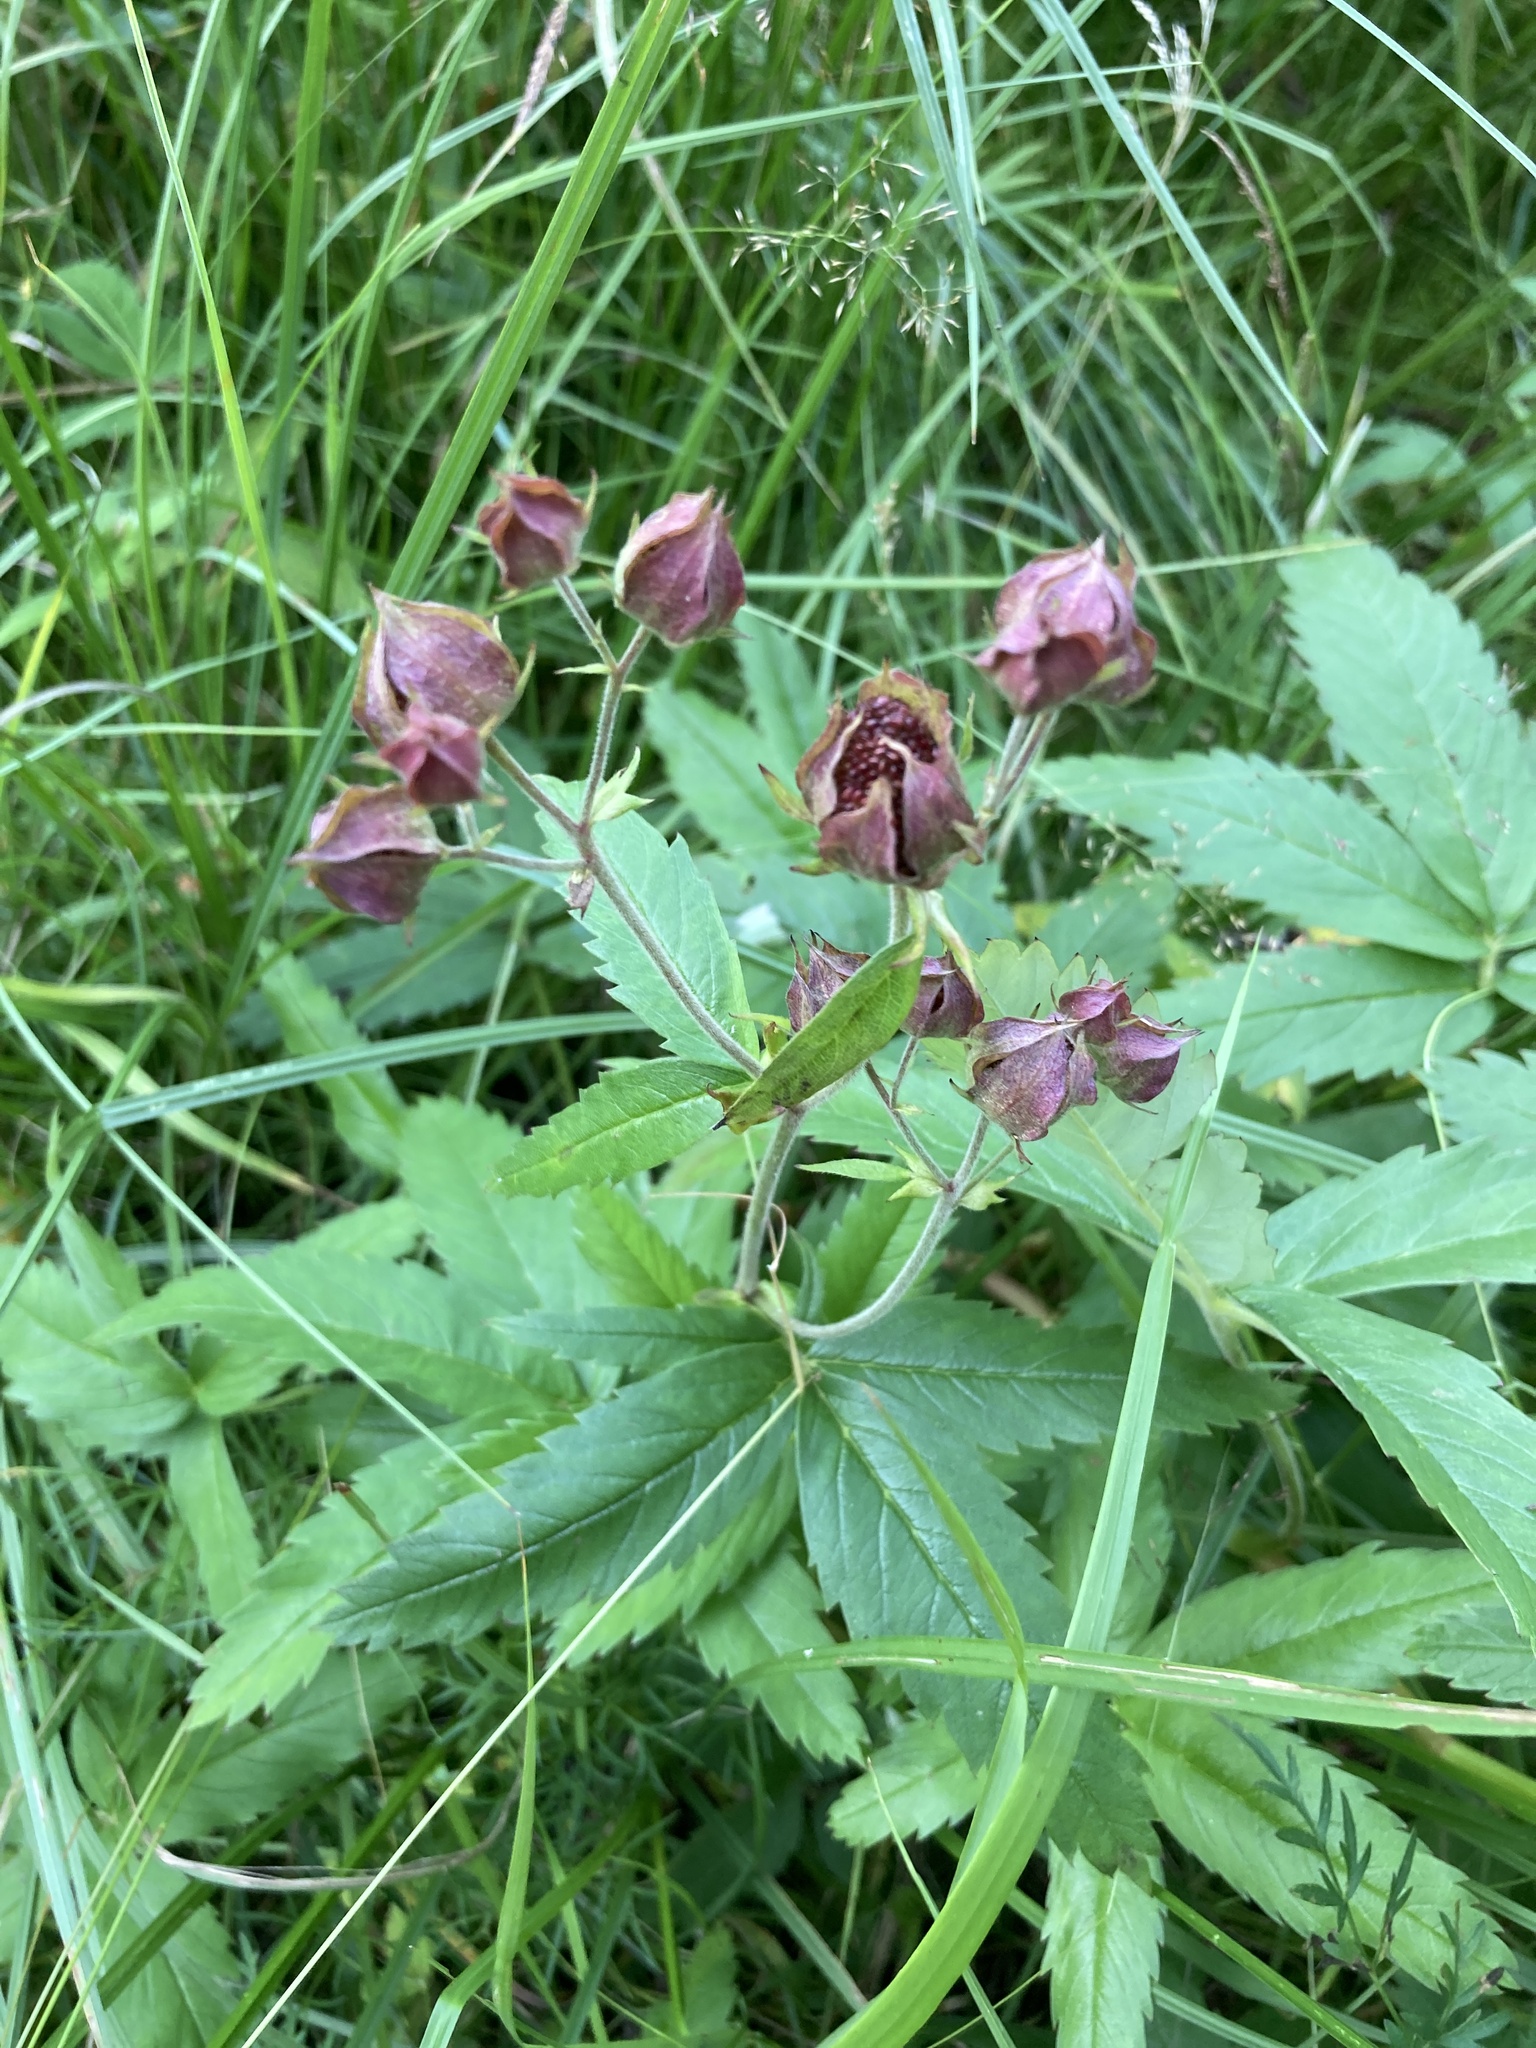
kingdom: Plantae
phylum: Tracheophyta
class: Magnoliopsida
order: Rosales
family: Rosaceae
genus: Comarum
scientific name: Comarum palustre
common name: Marsh cinquefoil
